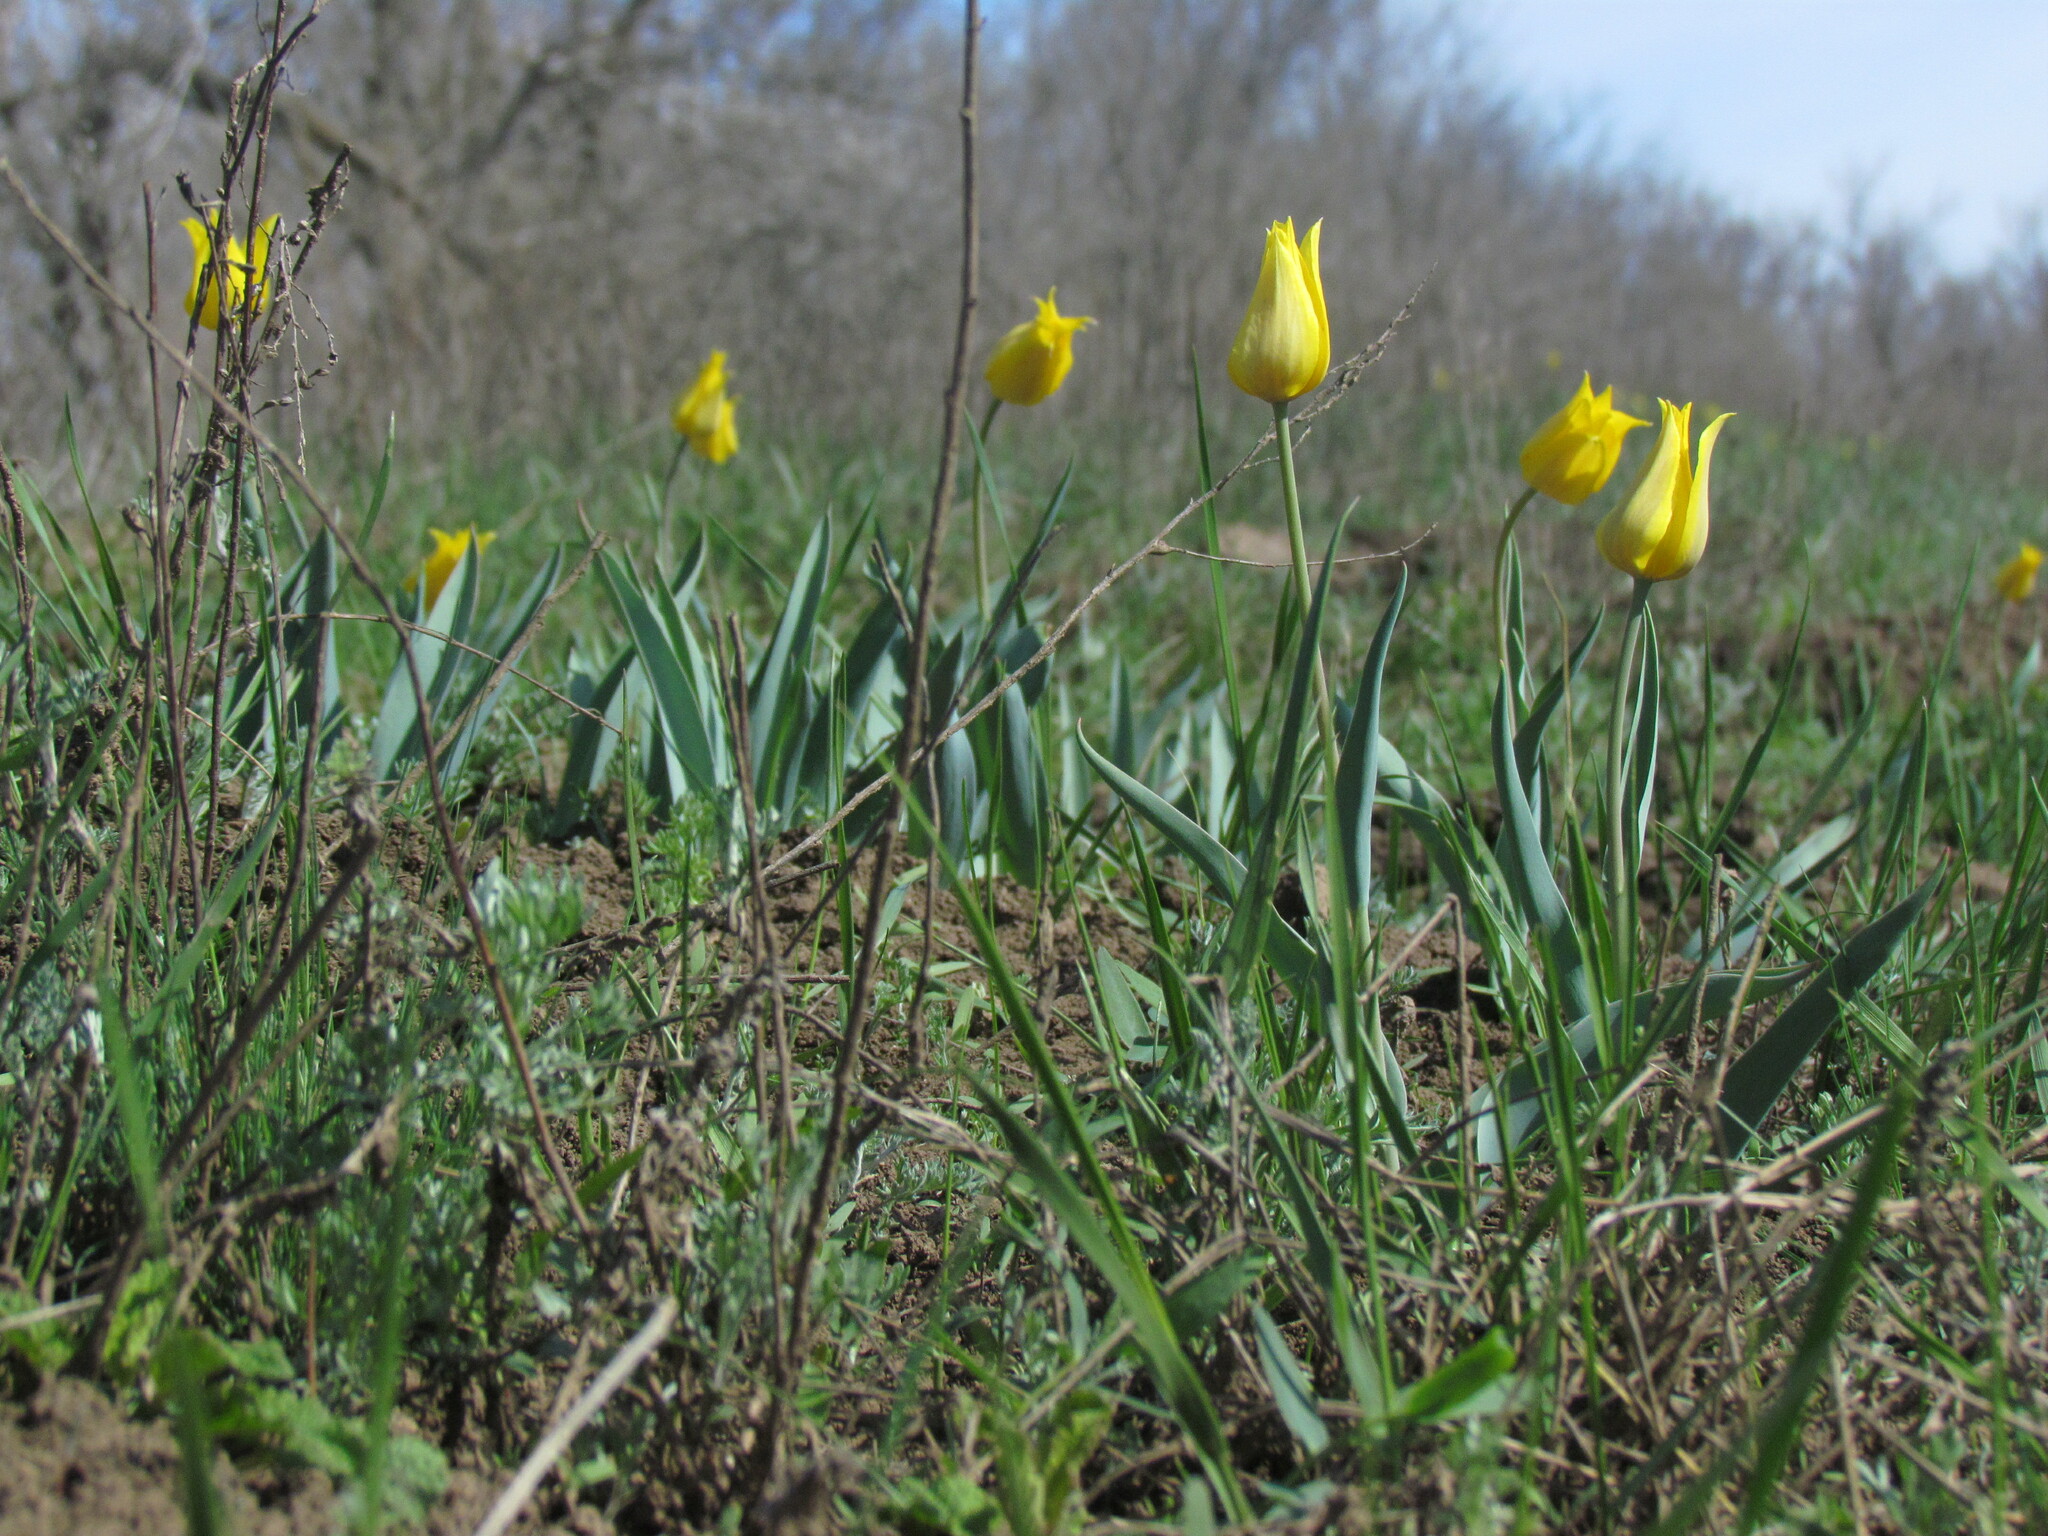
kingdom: Plantae
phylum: Tracheophyta
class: Liliopsida
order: Liliales
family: Liliaceae
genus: Tulipa
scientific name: Tulipa suaveolens
